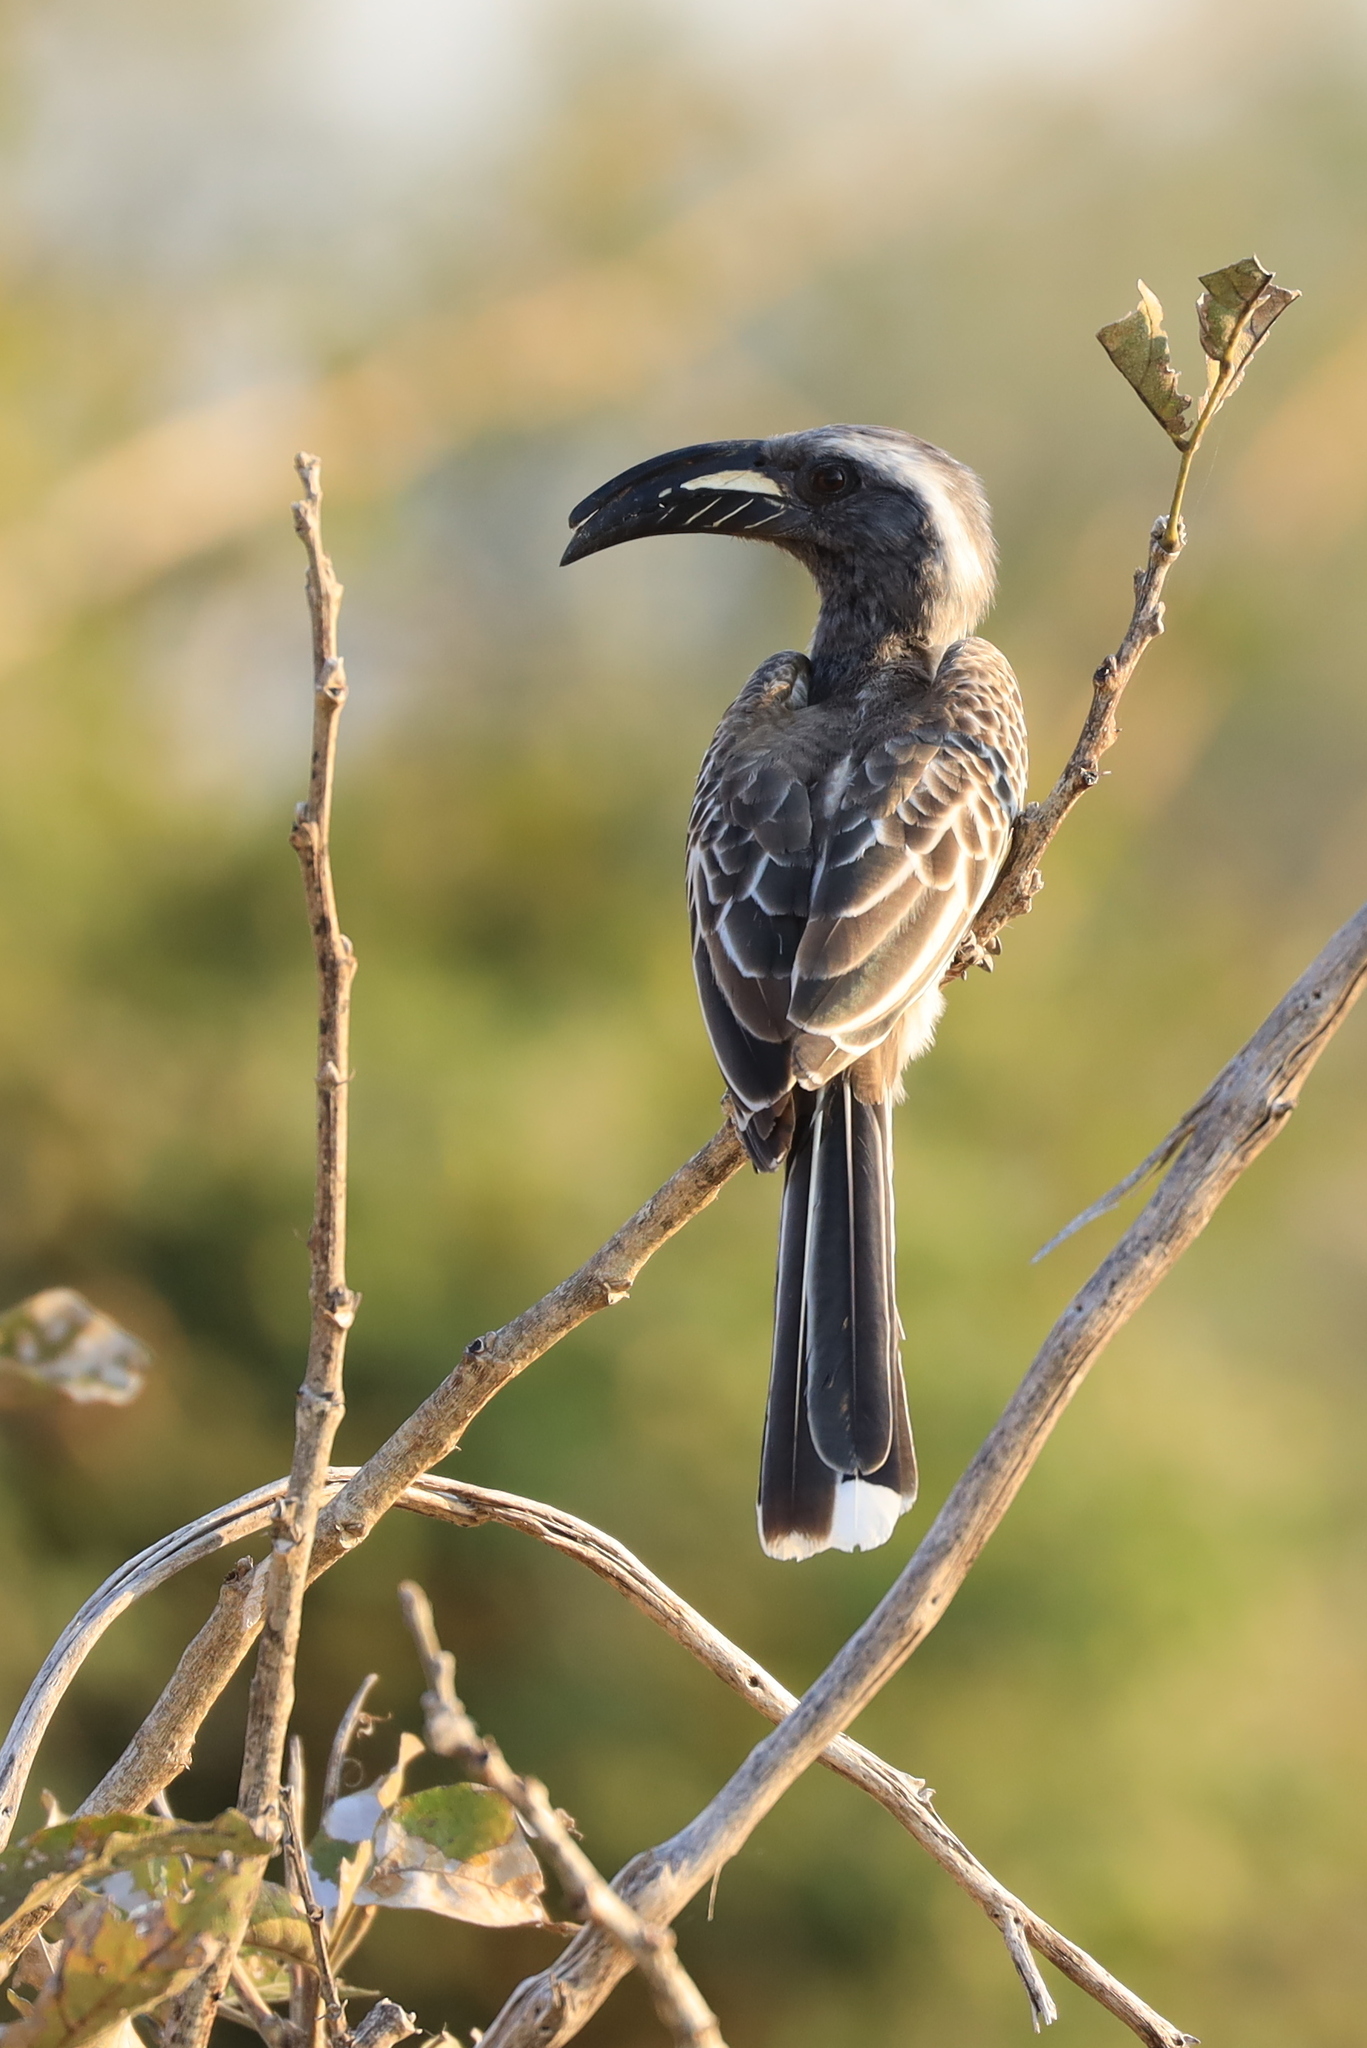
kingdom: Animalia
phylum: Chordata
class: Aves
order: Bucerotiformes
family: Bucerotidae
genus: Lophoceros
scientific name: Lophoceros nasutus
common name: African grey hornbill
